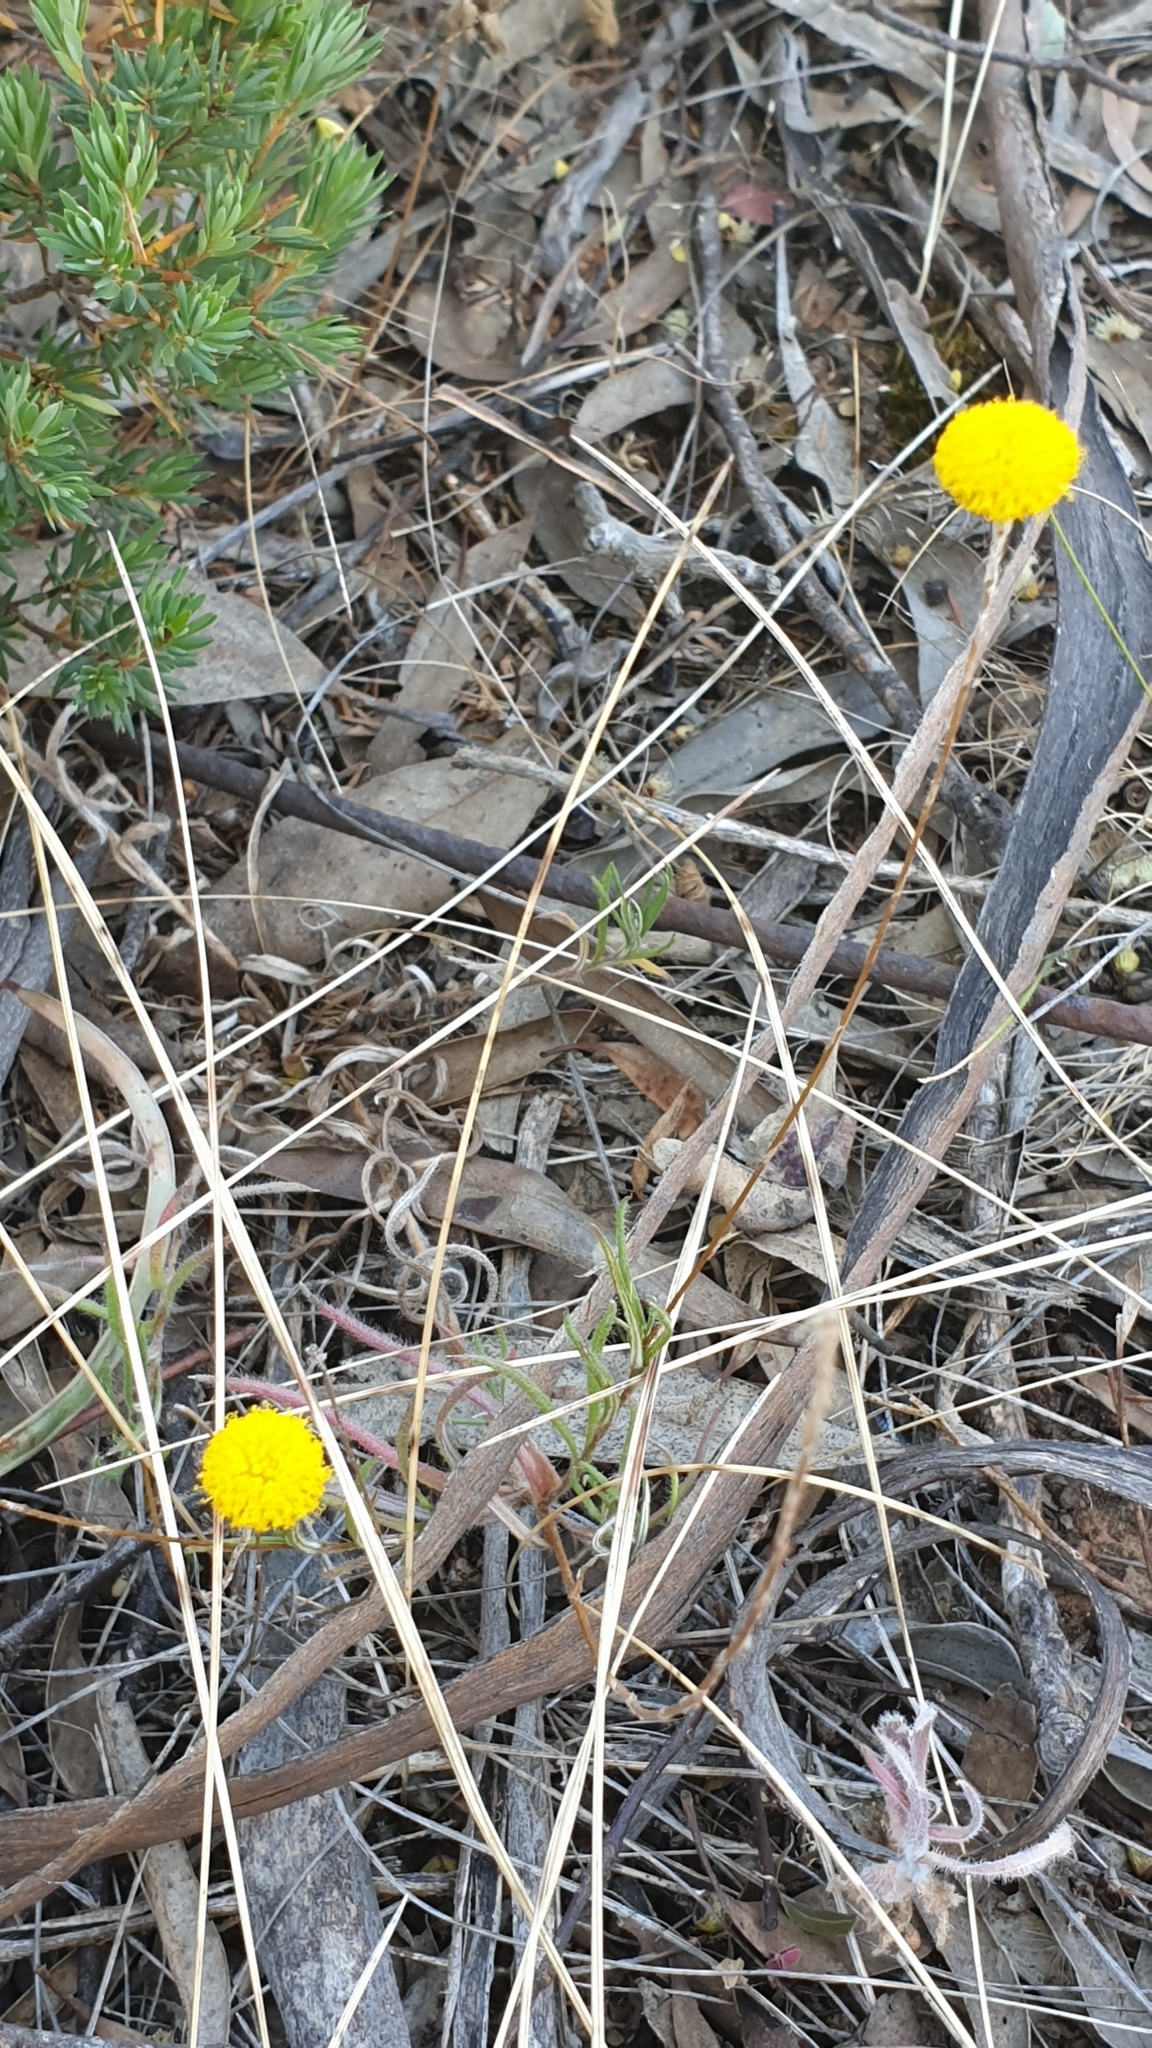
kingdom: Plantae
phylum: Tracheophyta
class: Magnoliopsida
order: Asterales
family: Asteraceae
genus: Leptorhynchos
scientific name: Leptorhynchos squamatus
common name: Scaly-buttons
